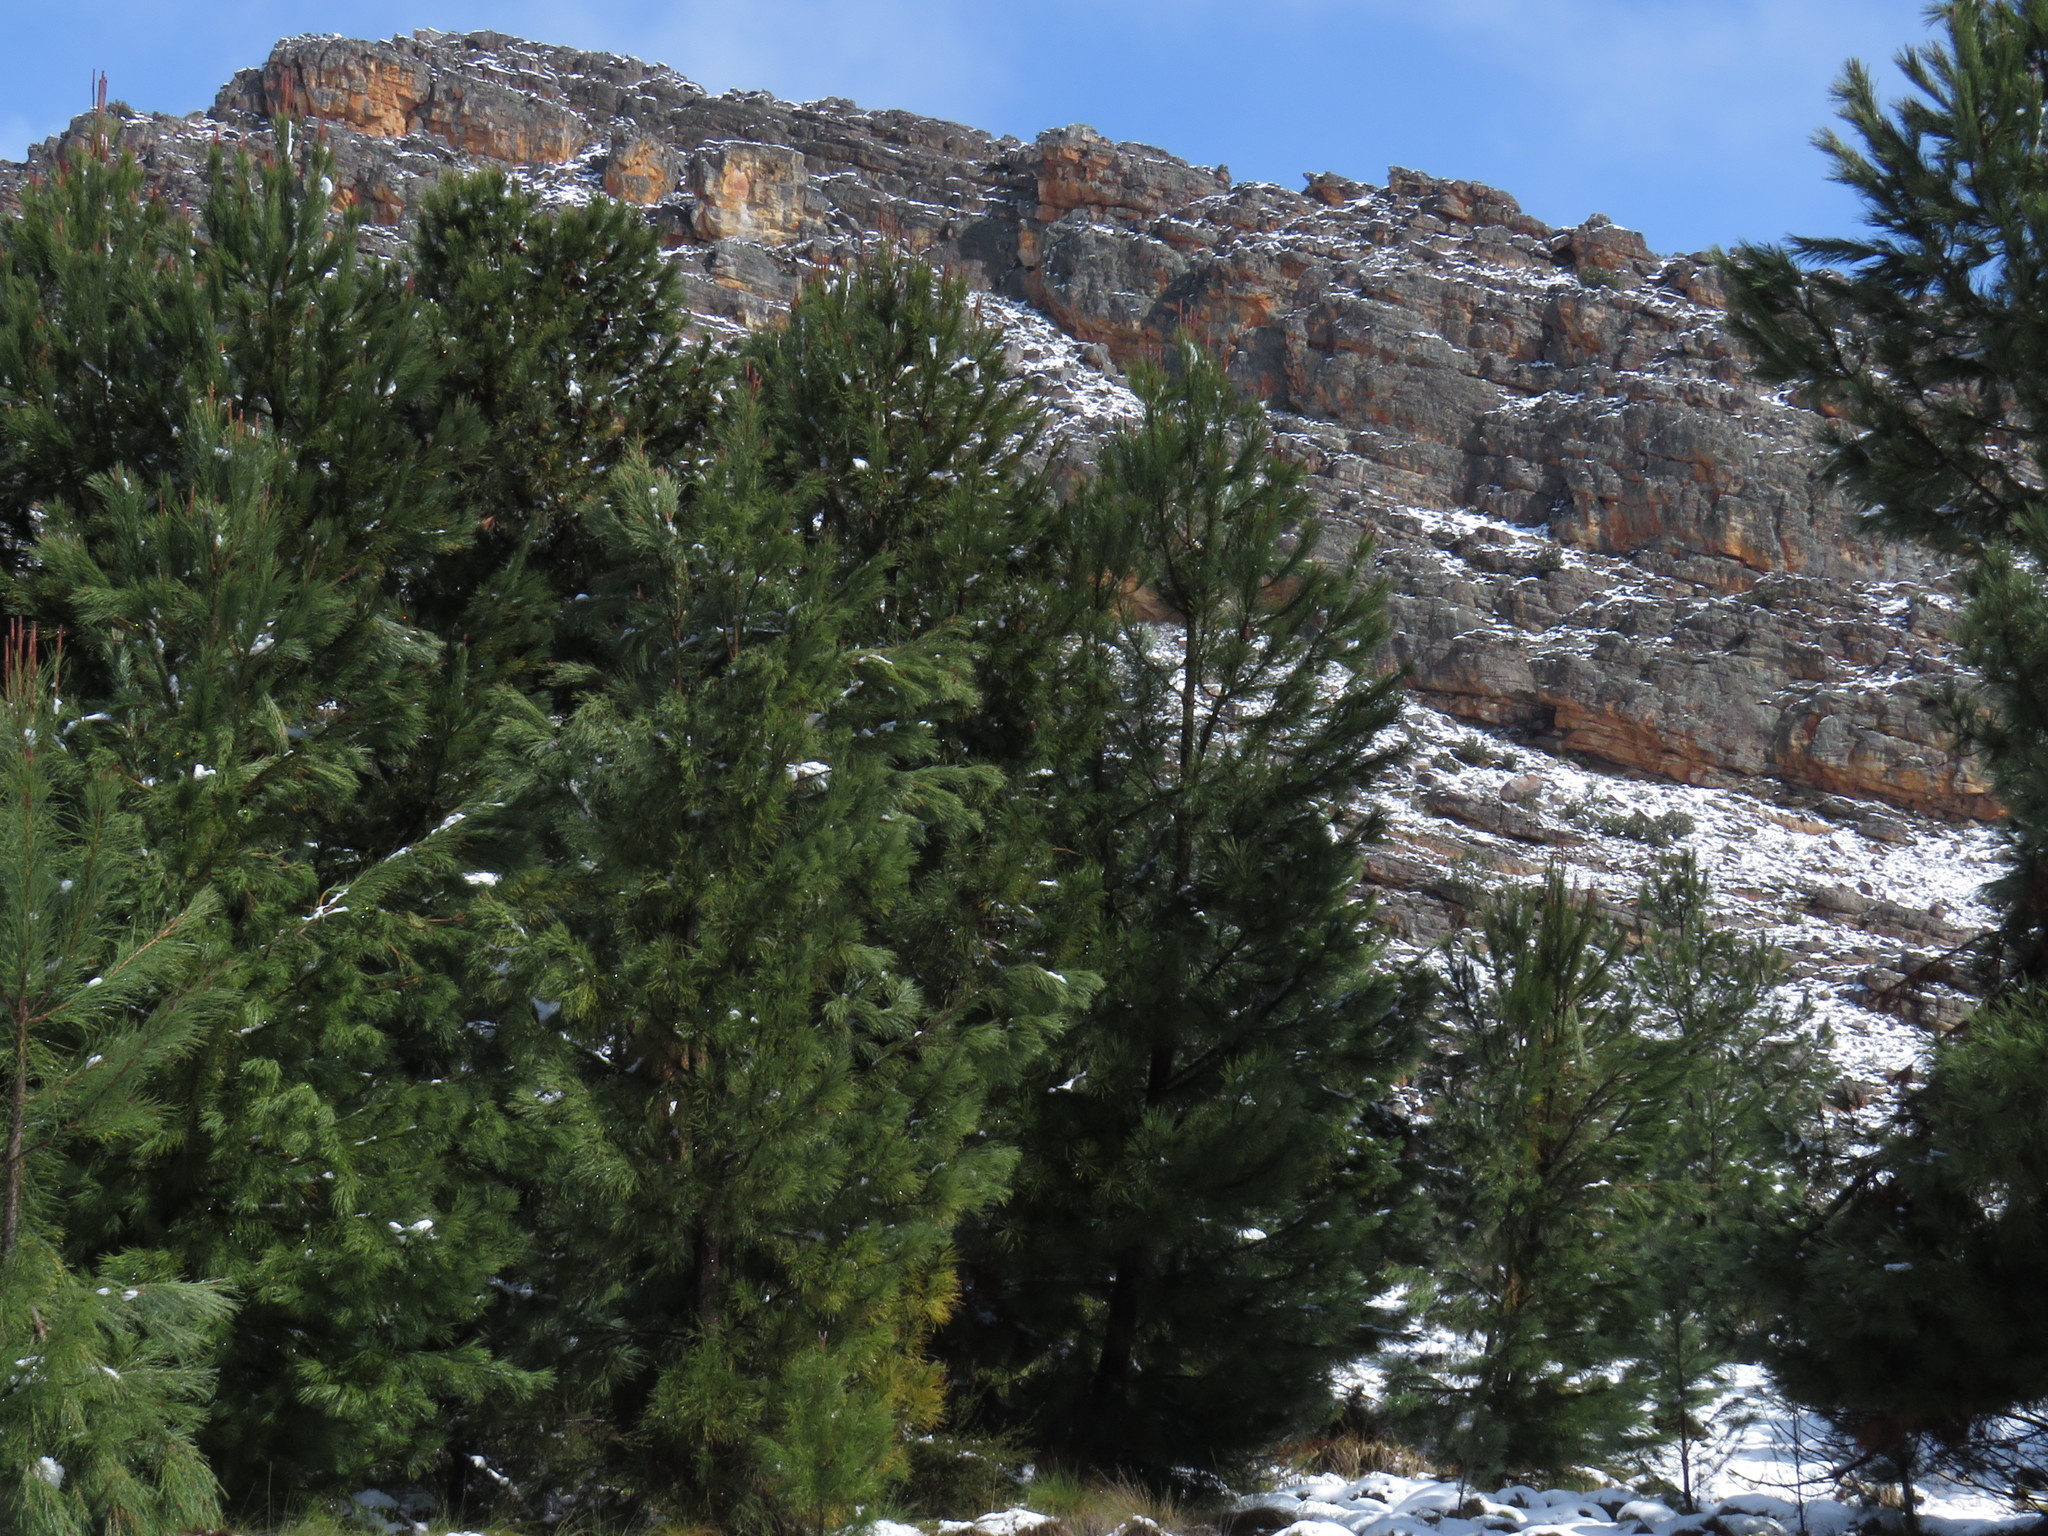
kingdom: Plantae
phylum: Tracheophyta
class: Pinopsida
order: Pinales
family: Pinaceae
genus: Pinus
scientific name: Pinus pinaster
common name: Maritime pine
